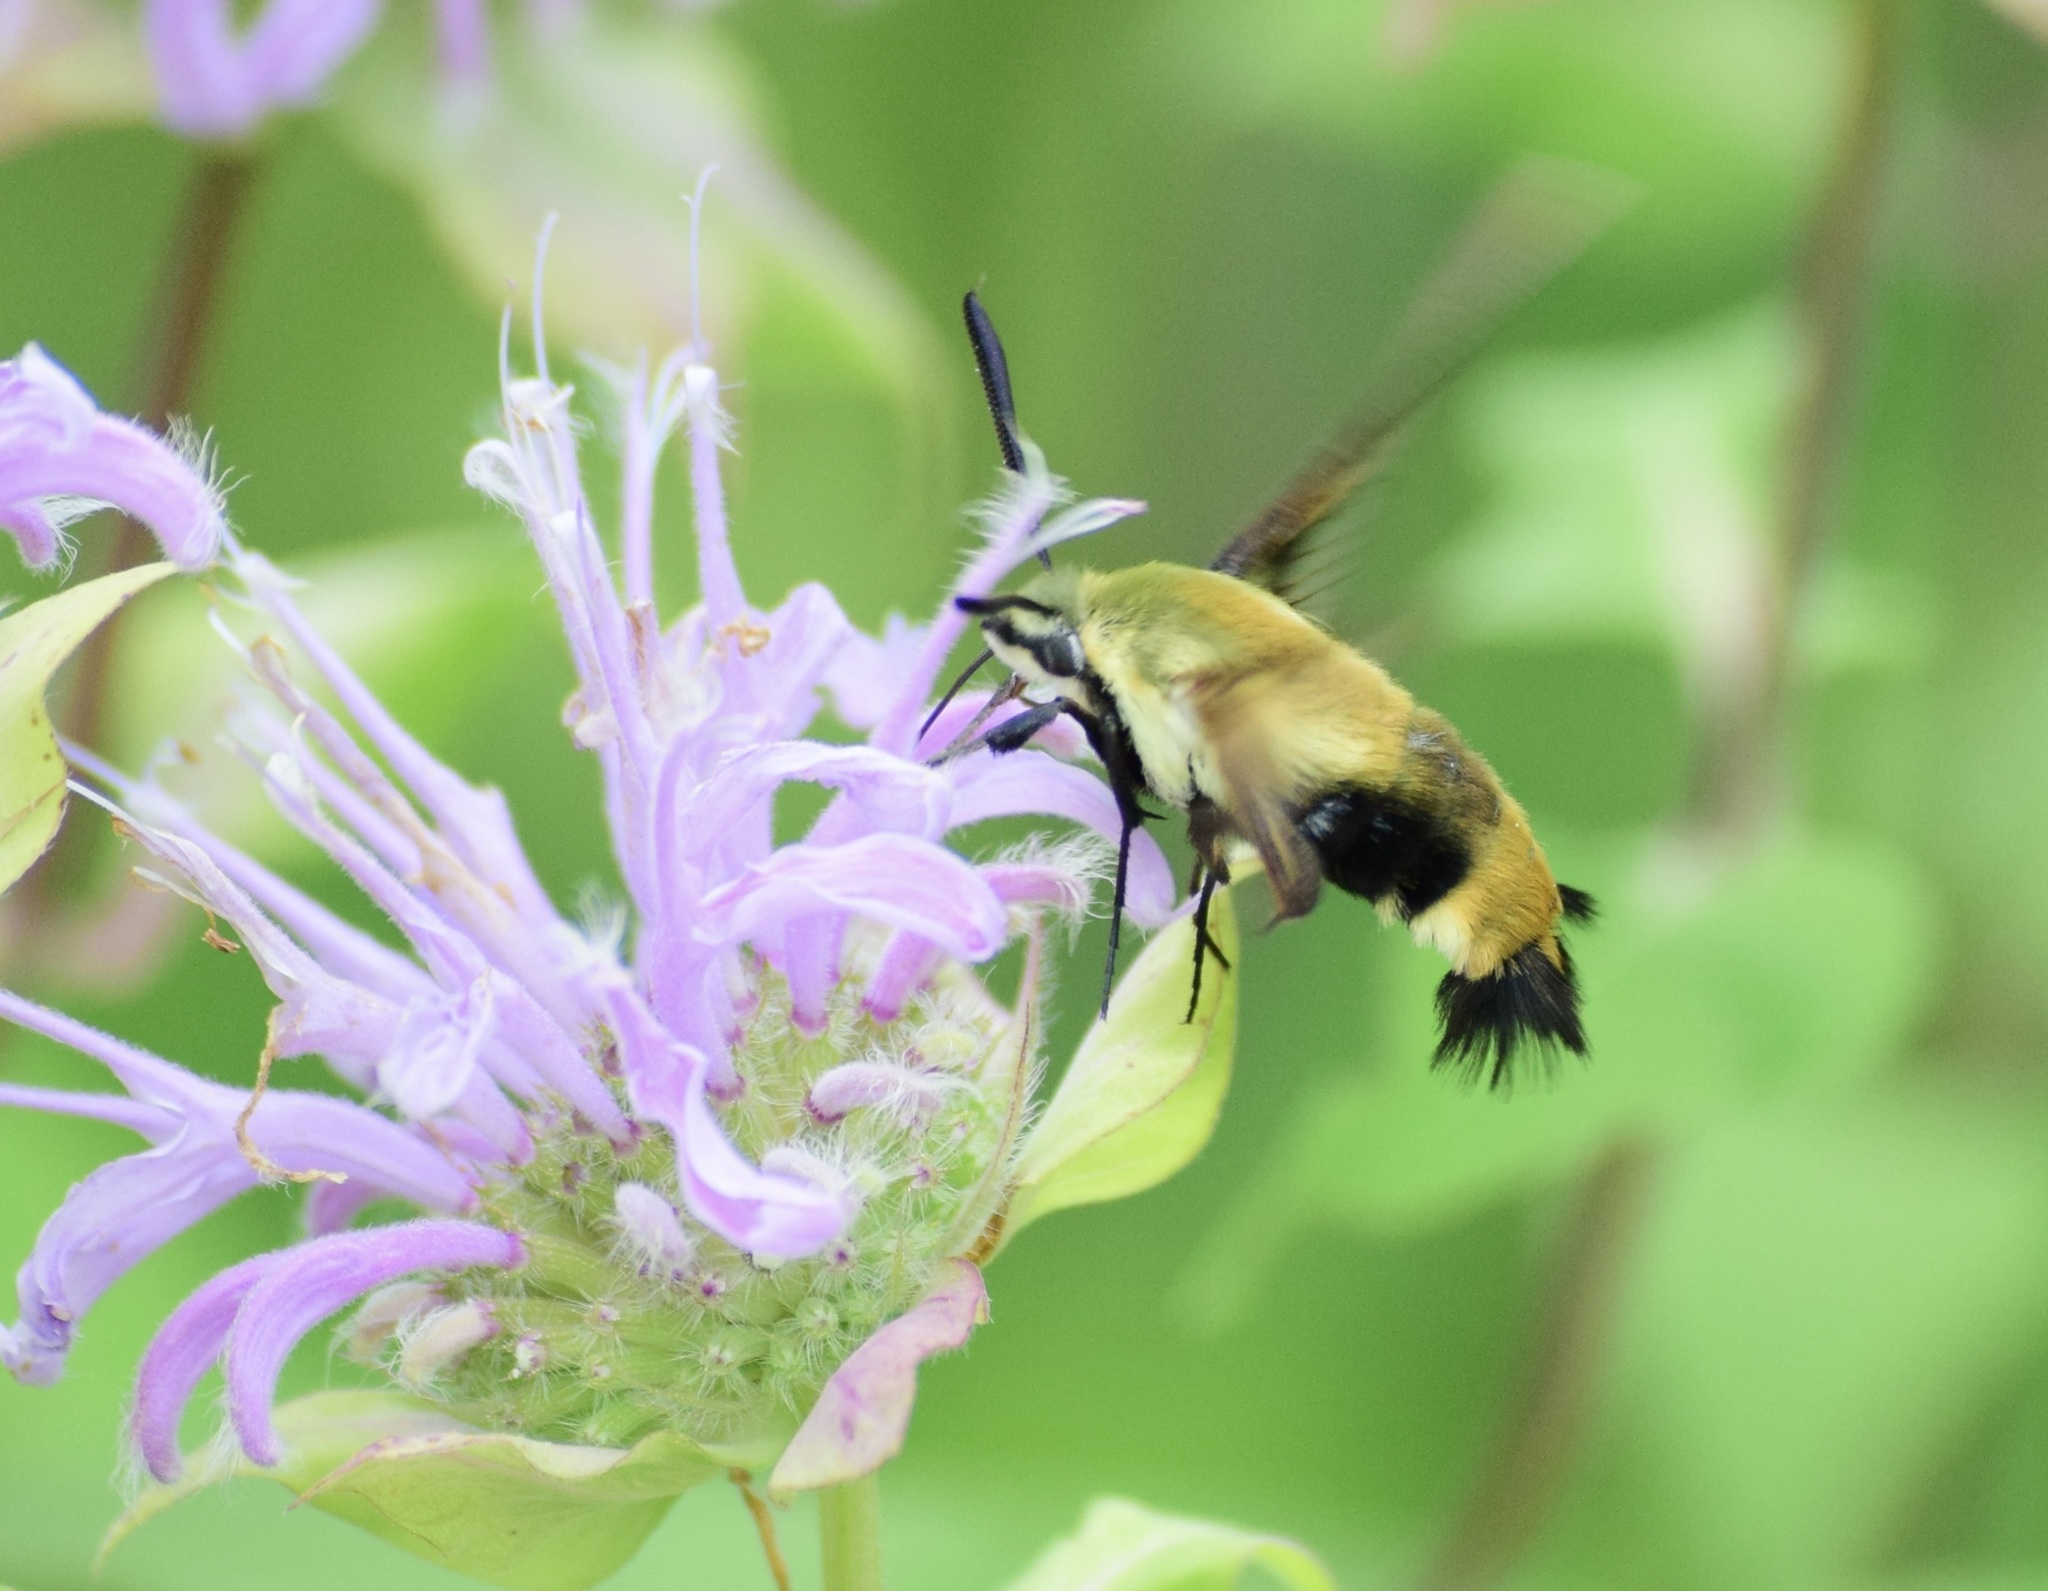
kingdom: Animalia
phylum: Arthropoda
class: Insecta
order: Lepidoptera
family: Sphingidae
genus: Hemaris
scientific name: Hemaris diffinis
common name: Bumblebee moth
